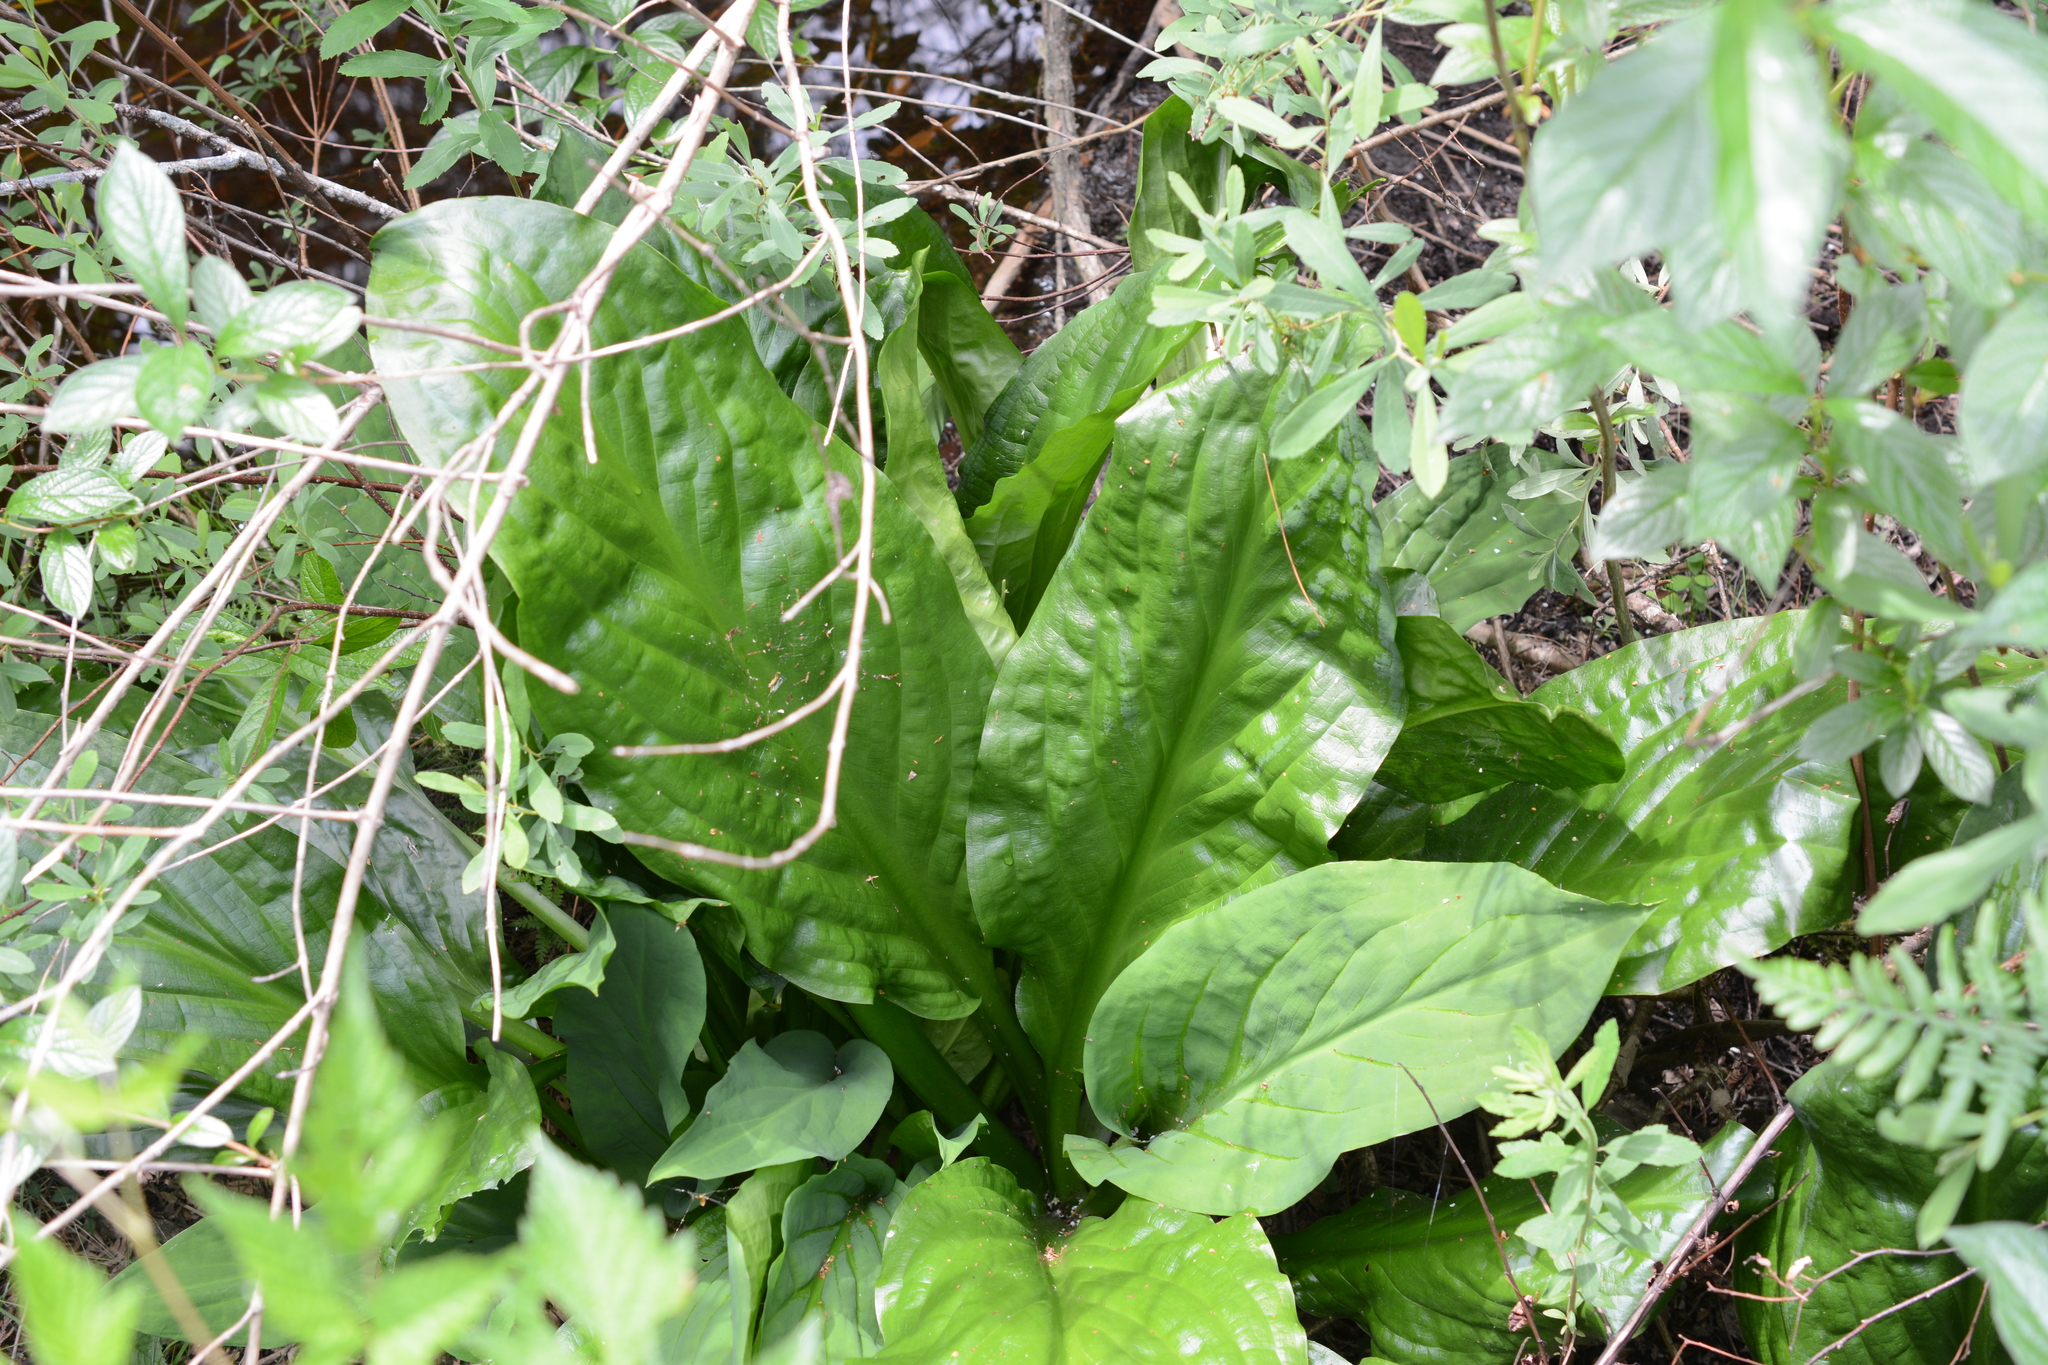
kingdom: Plantae
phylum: Tracheophyta
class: Liliopsida
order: Alismatales
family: Araceae
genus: Lysichiton
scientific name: Lysichiton americanus
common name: American skunk cabbage
